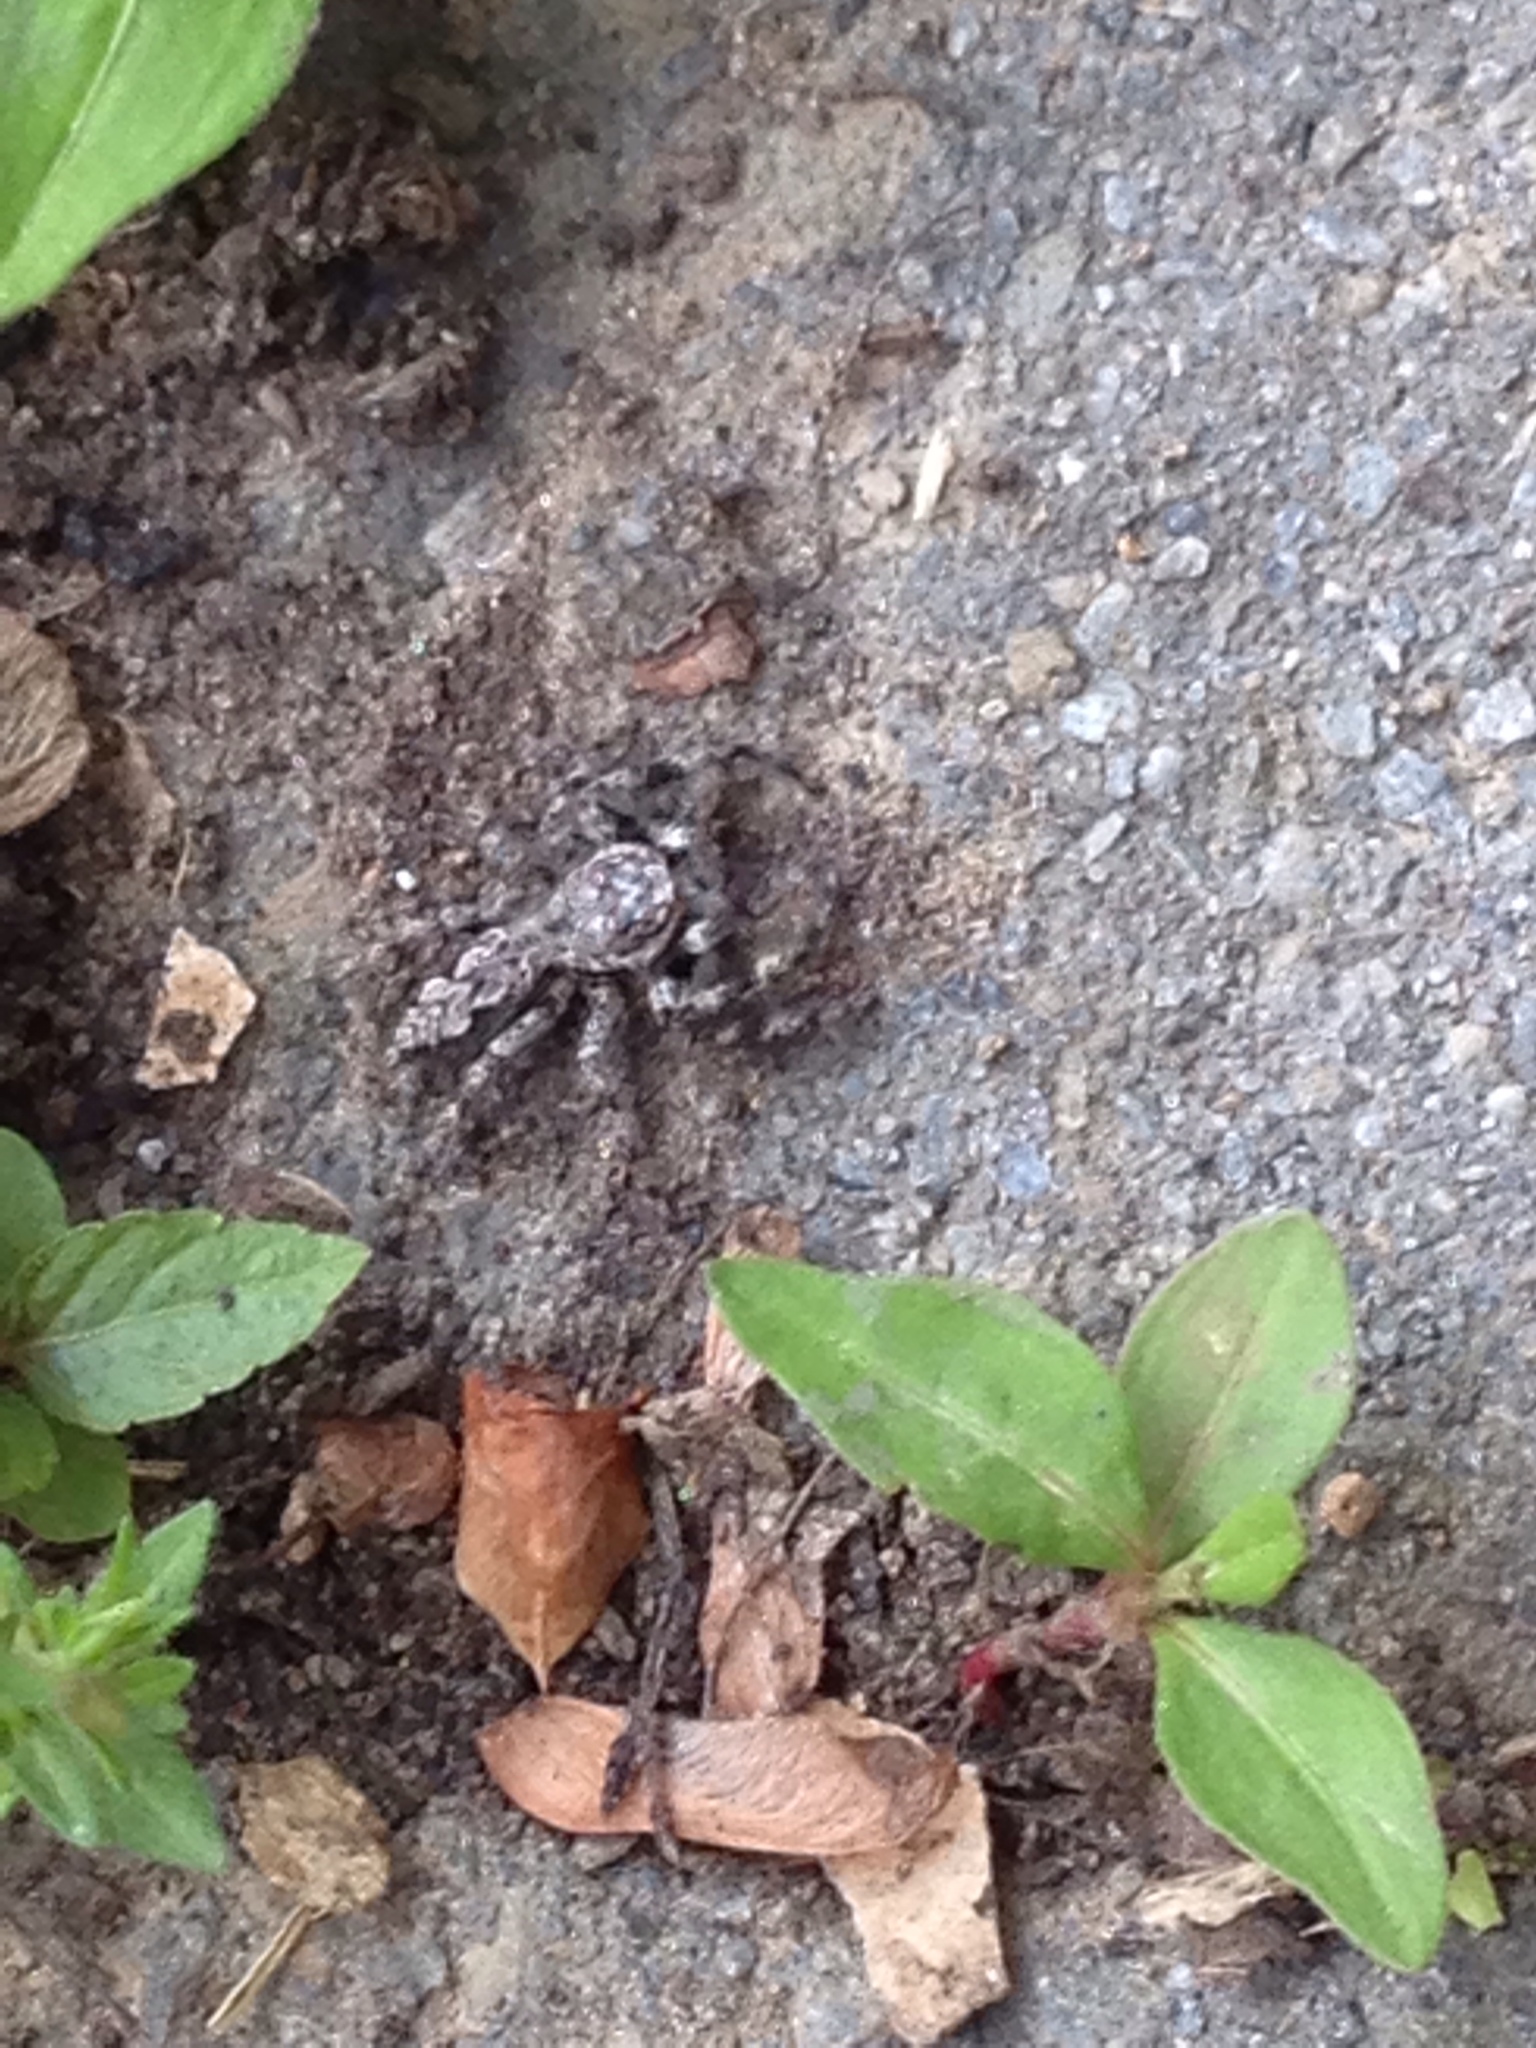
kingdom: Animalia
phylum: Arthropoda
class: Arachnida
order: Araneae
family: Salticidae
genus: Platycryptus
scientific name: Platycryptus undatus
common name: Tan jumping spider
